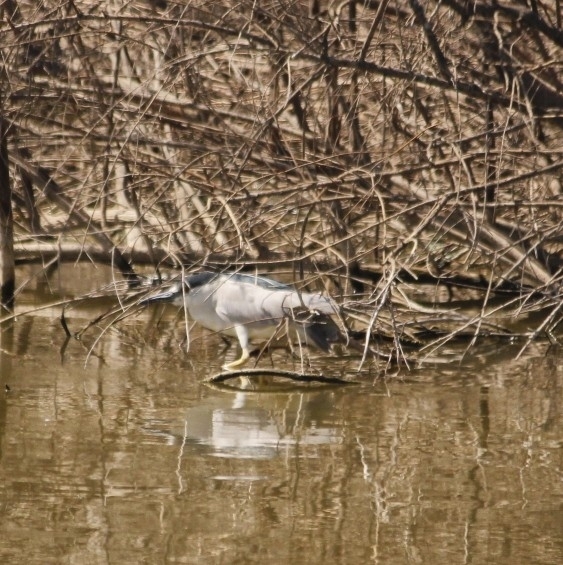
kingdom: Animalia
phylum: Chordata
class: Aves
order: Pelecaniformes
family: Ardeidae
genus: Nycticorax
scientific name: Nycticorax nycticorax
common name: Black-crowned night heron
